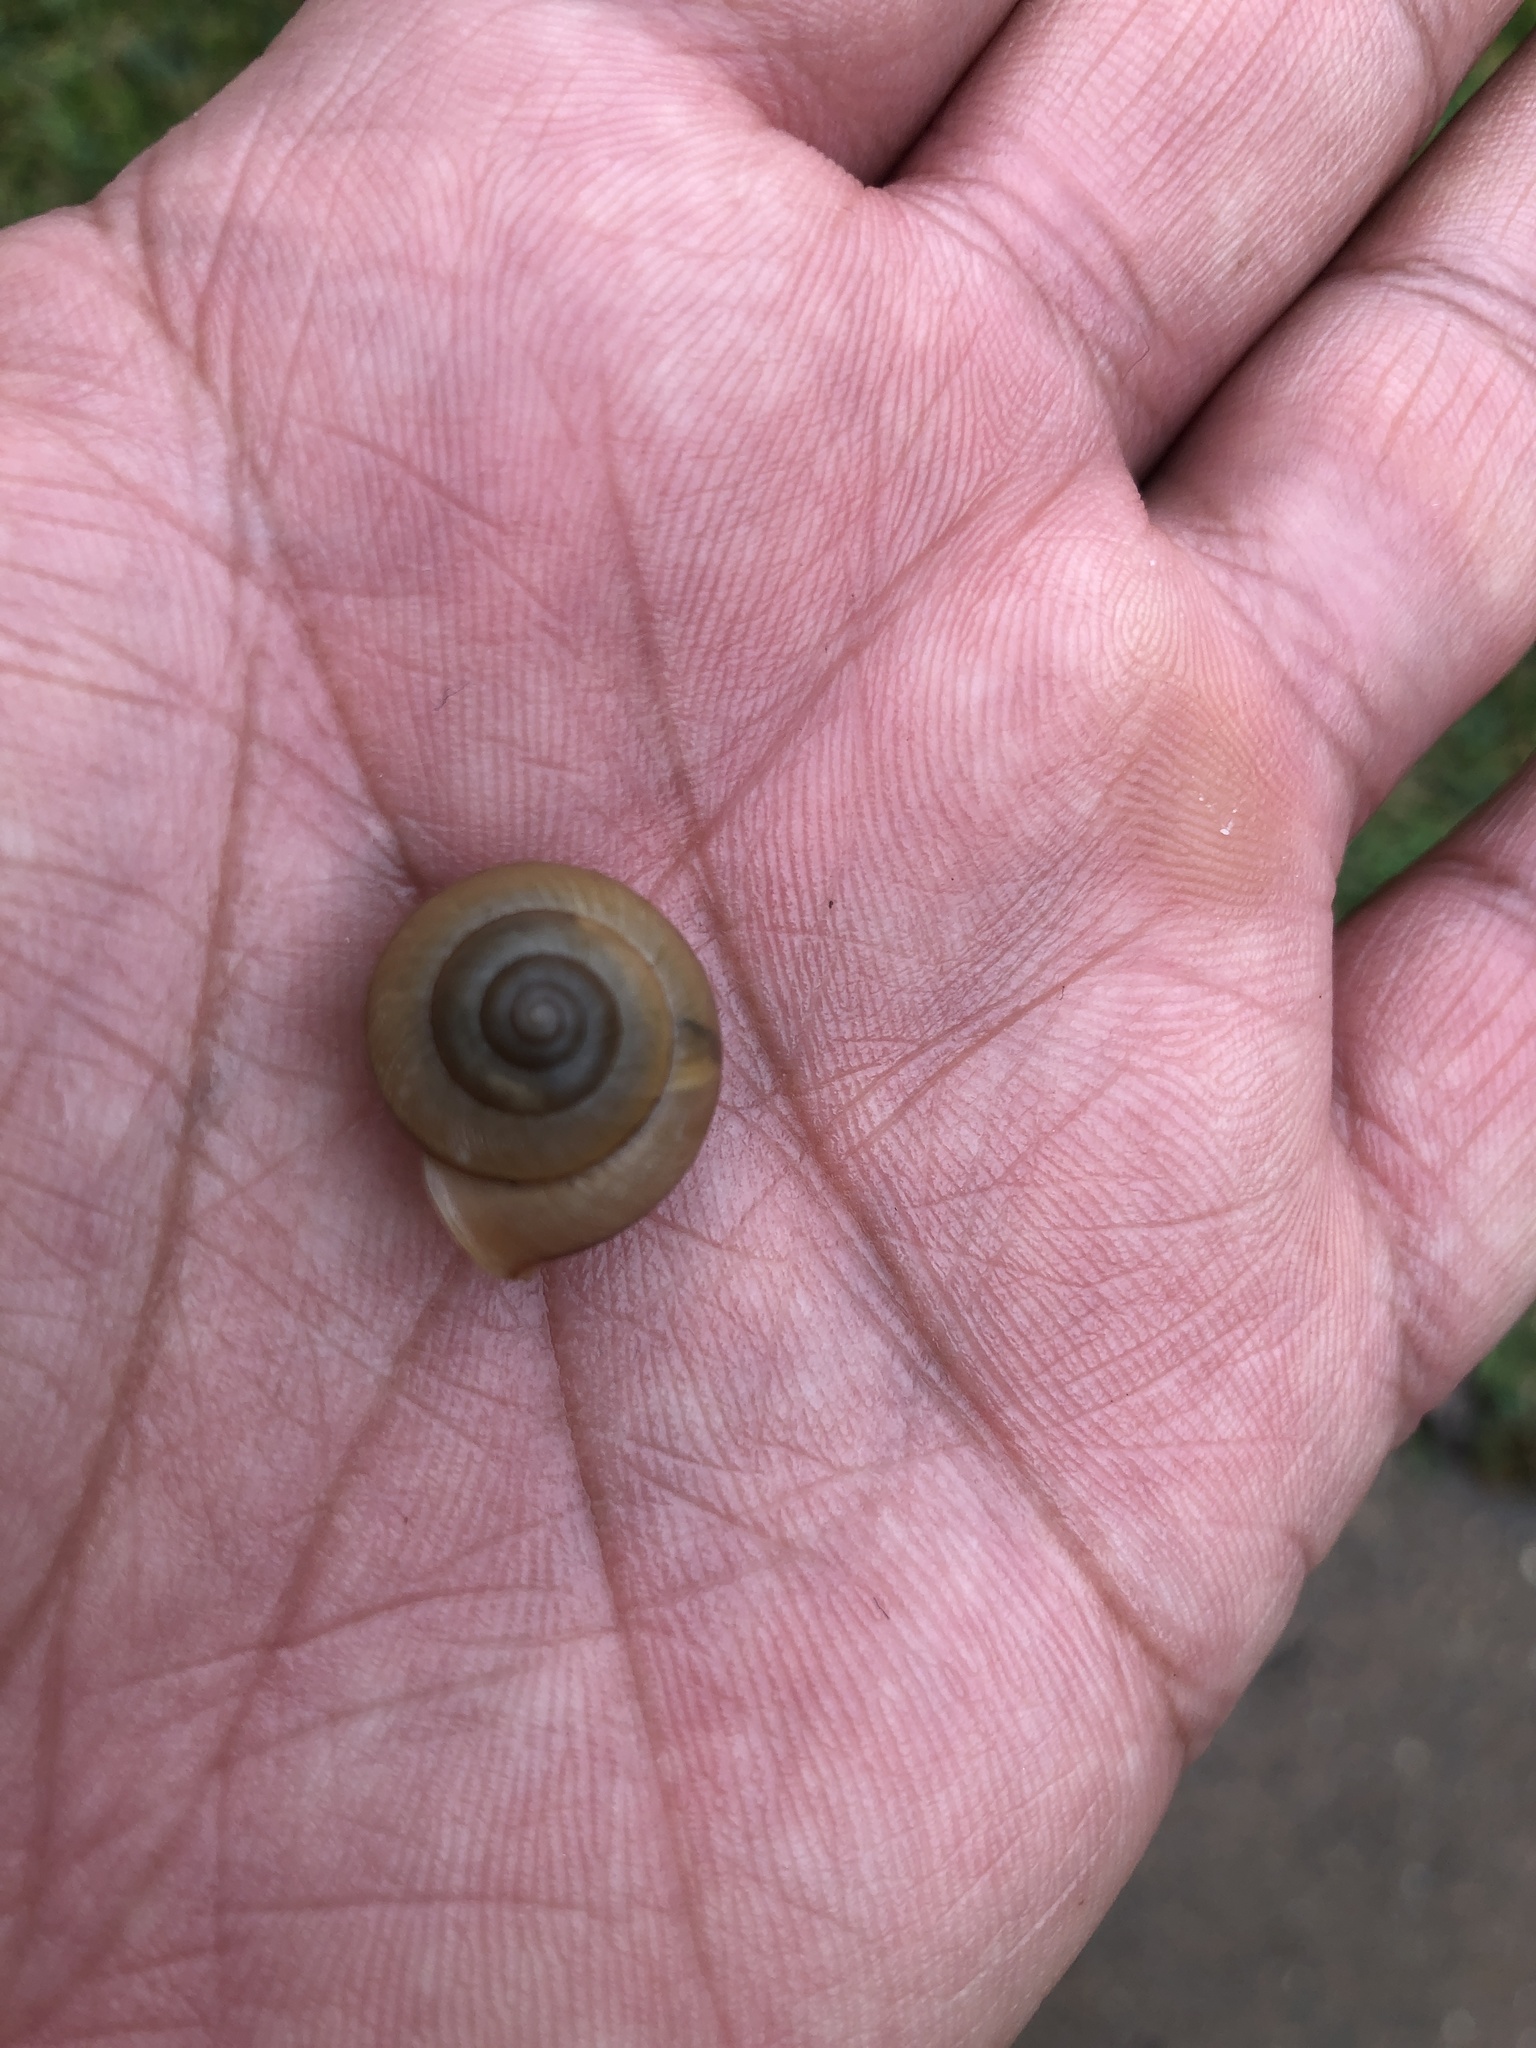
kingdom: Animalia
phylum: Mollusca
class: Gastropoda
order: Stylommatophora
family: Camaenidae
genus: Bradybaena
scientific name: Bradybaena similaris
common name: Asian trampsnail
